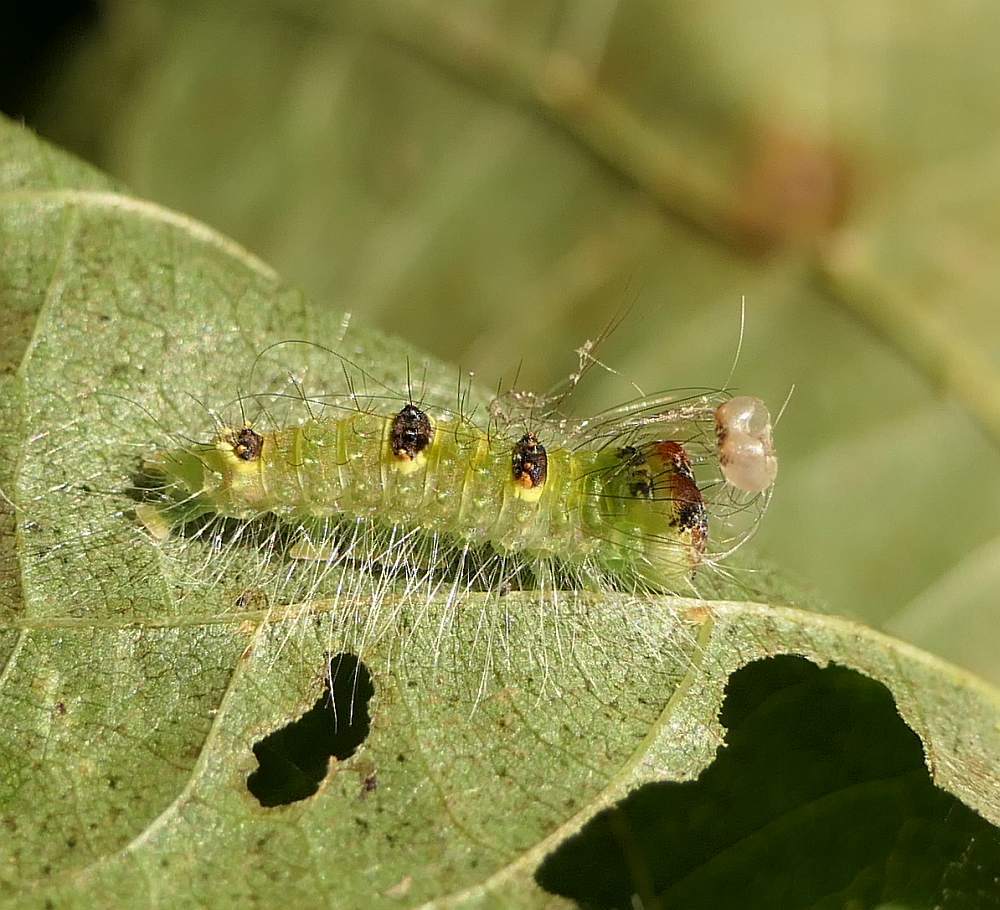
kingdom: Animalia
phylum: Arthropoda
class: Insecta
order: Lepidoptera
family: Noctuidae
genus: Acronicta
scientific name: Acronicta morula
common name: Ochre dagger
